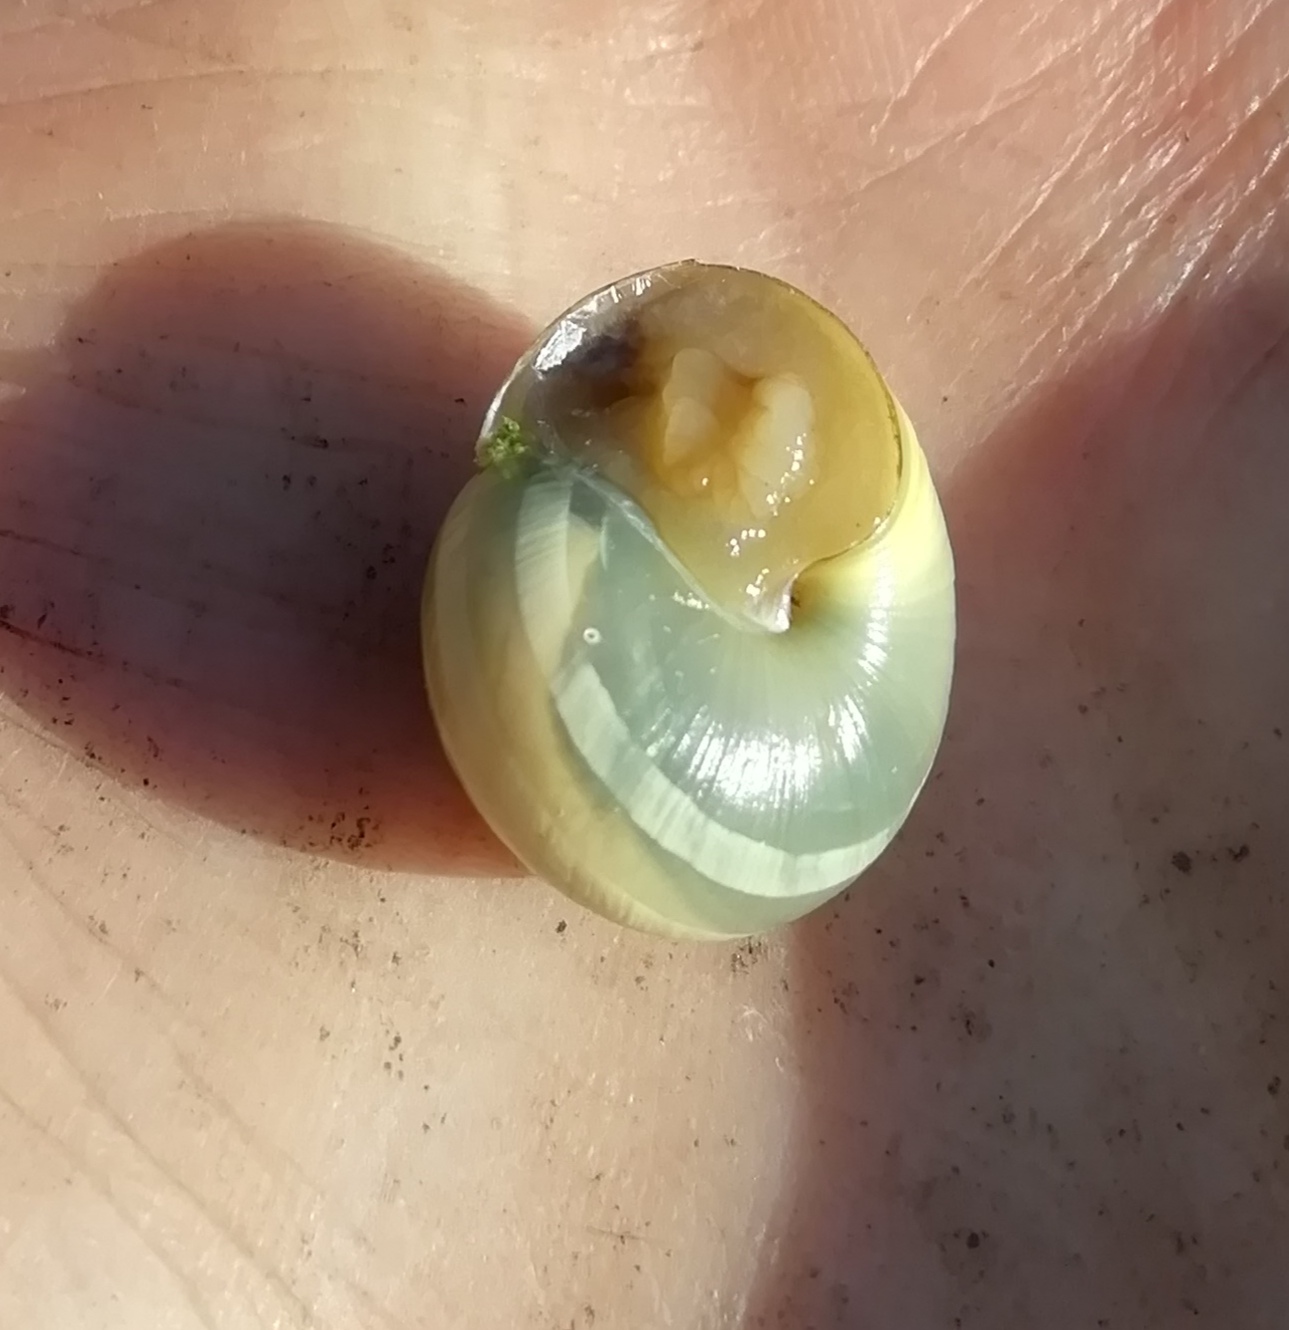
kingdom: Animalia
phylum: Mollusca
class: Gastropoda
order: Stylommatophora
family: Helicidae
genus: Cepaea
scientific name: Cepaea
